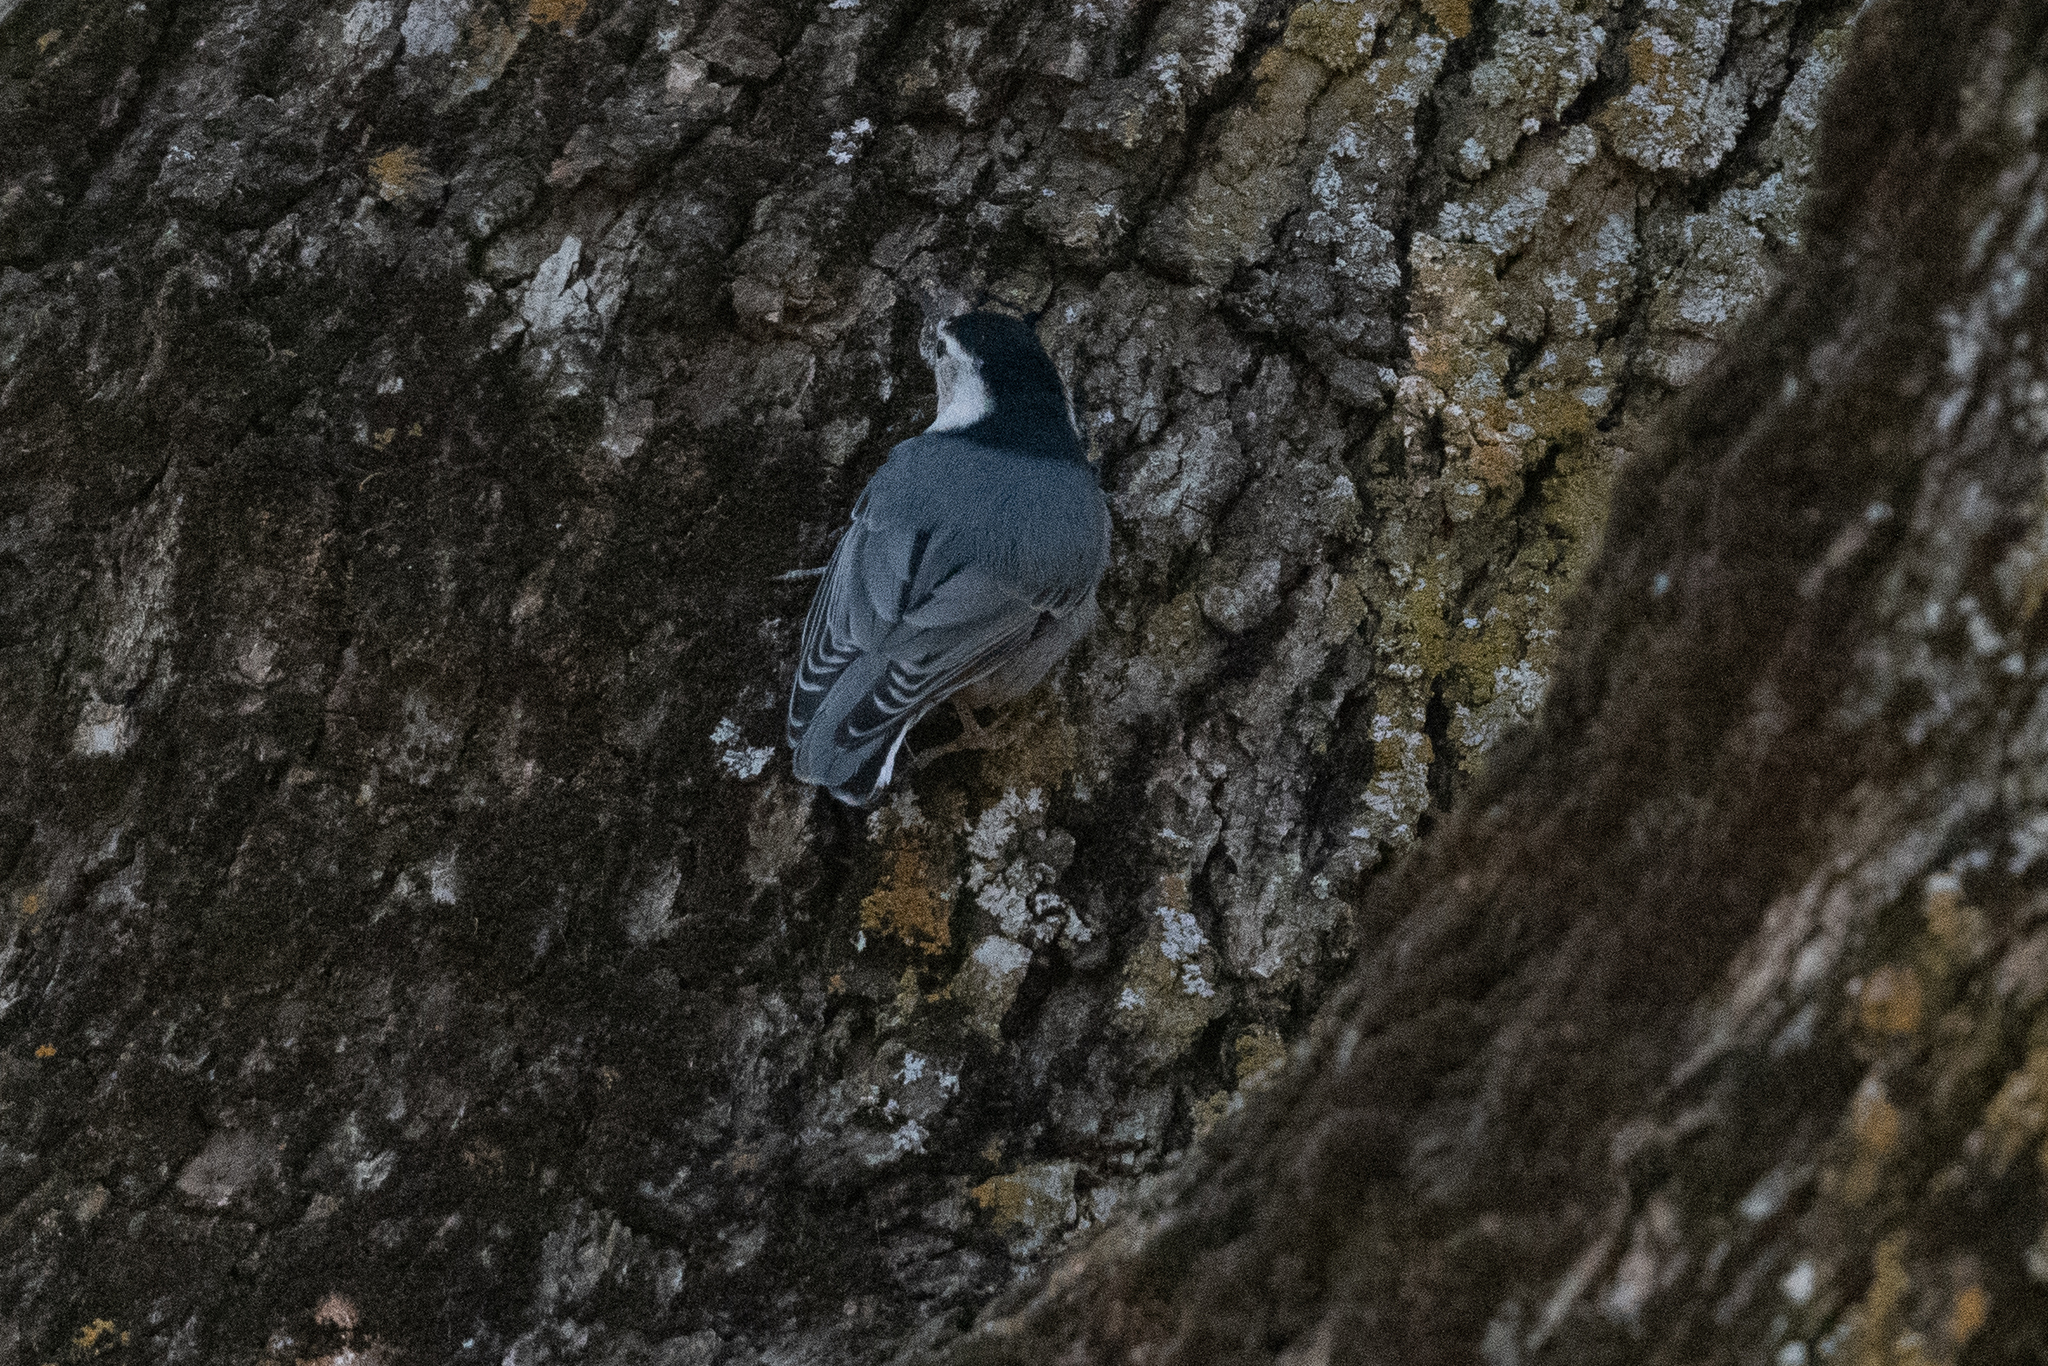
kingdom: Animalia
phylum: Chordata
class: Aves
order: Passeriformes
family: Sittidae
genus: Sitta
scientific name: Sitta carolinensis
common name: White-breasted nuthatch
